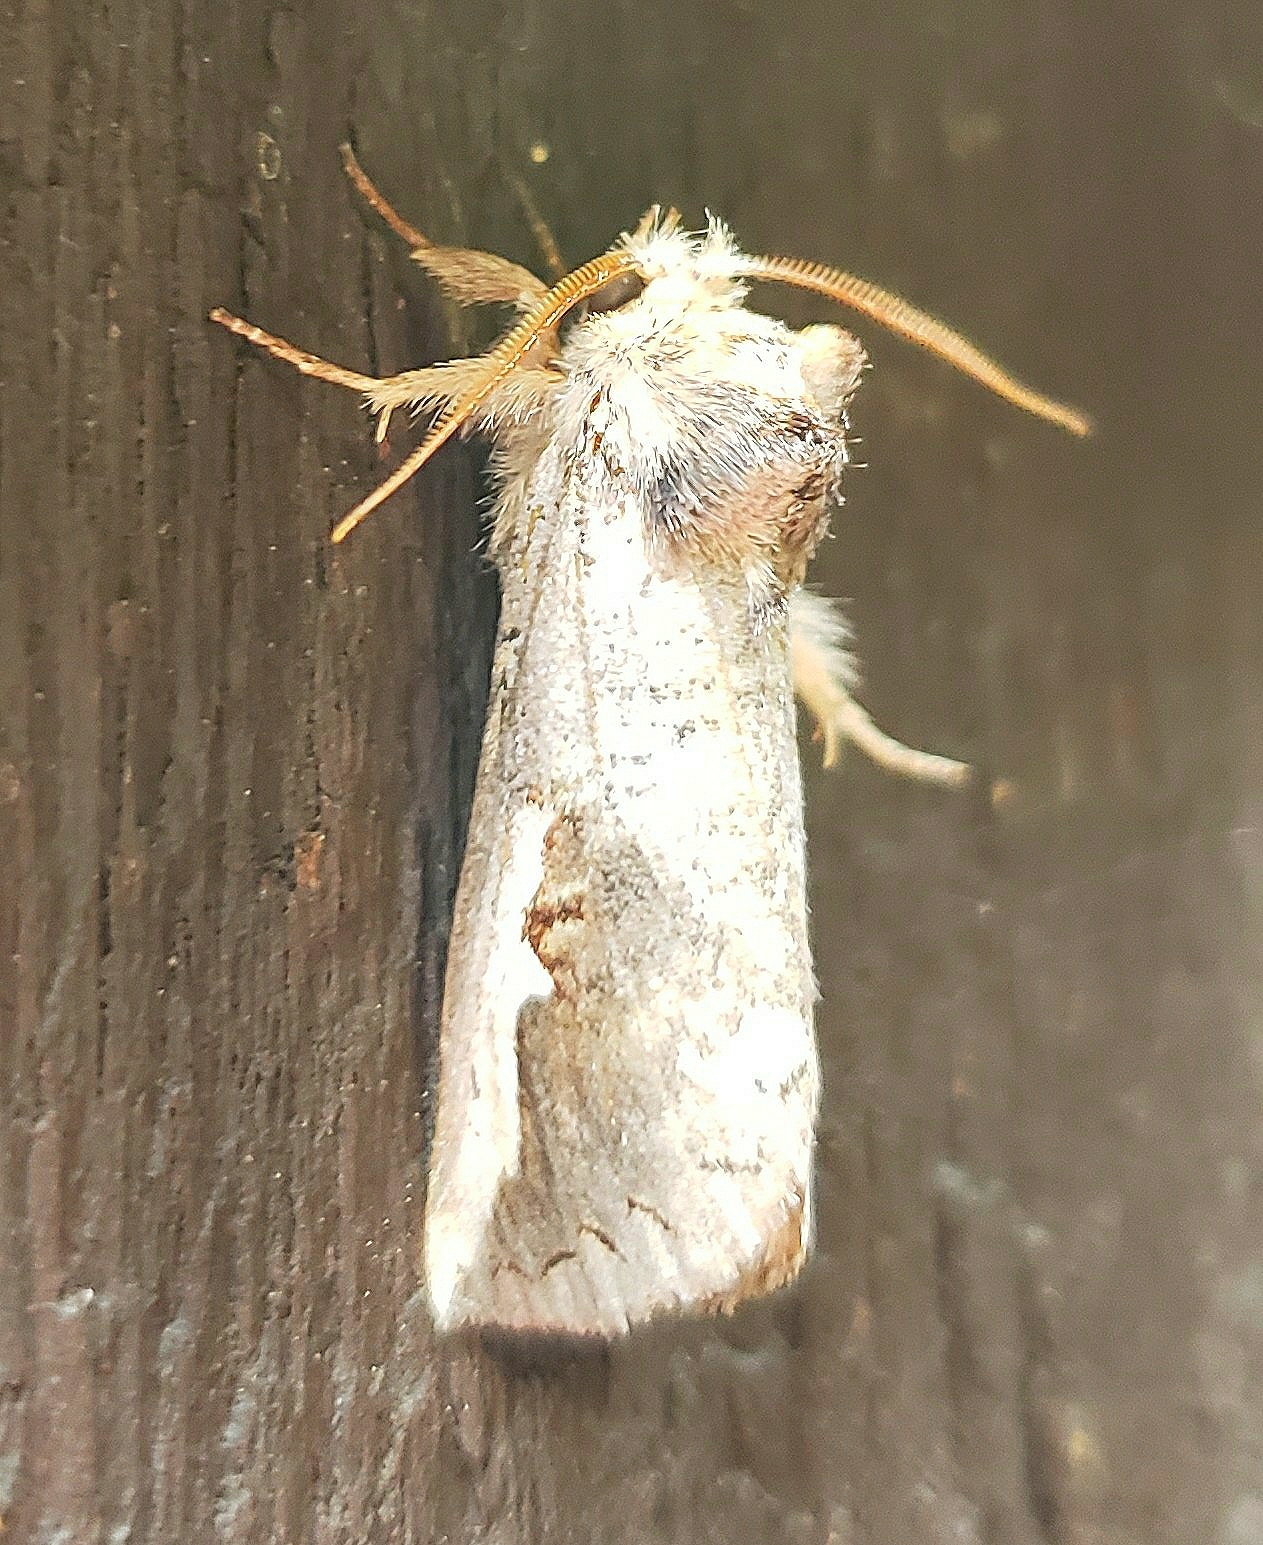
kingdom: Animalia
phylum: Arthropoda
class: Insecta
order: Lepidoptera
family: Notodontidae
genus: Symmerista
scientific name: Symmerista albifrons
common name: White-headed prominent
